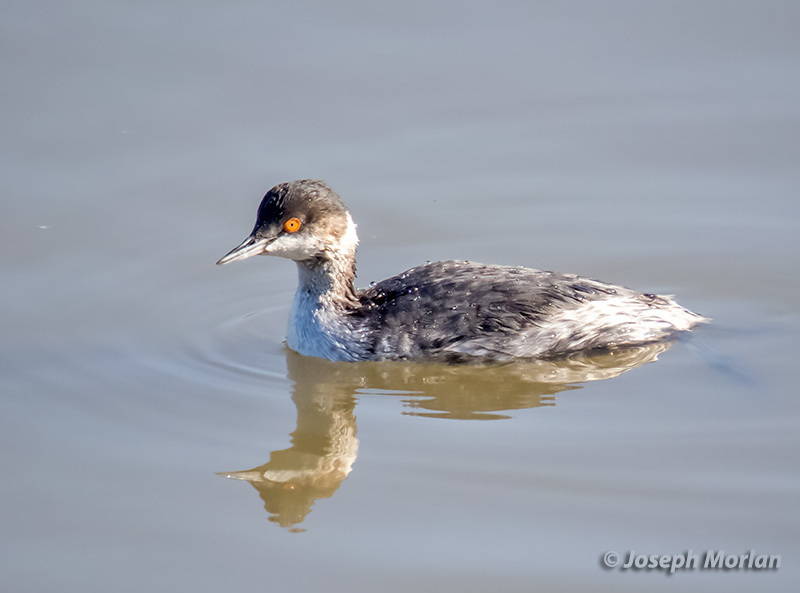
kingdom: Animalia
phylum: Chordata
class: Aves
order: Podicipediformes
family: Podicipedidae
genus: Podiceps
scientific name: Podiceps nigricollis
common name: Black-necked grebe
